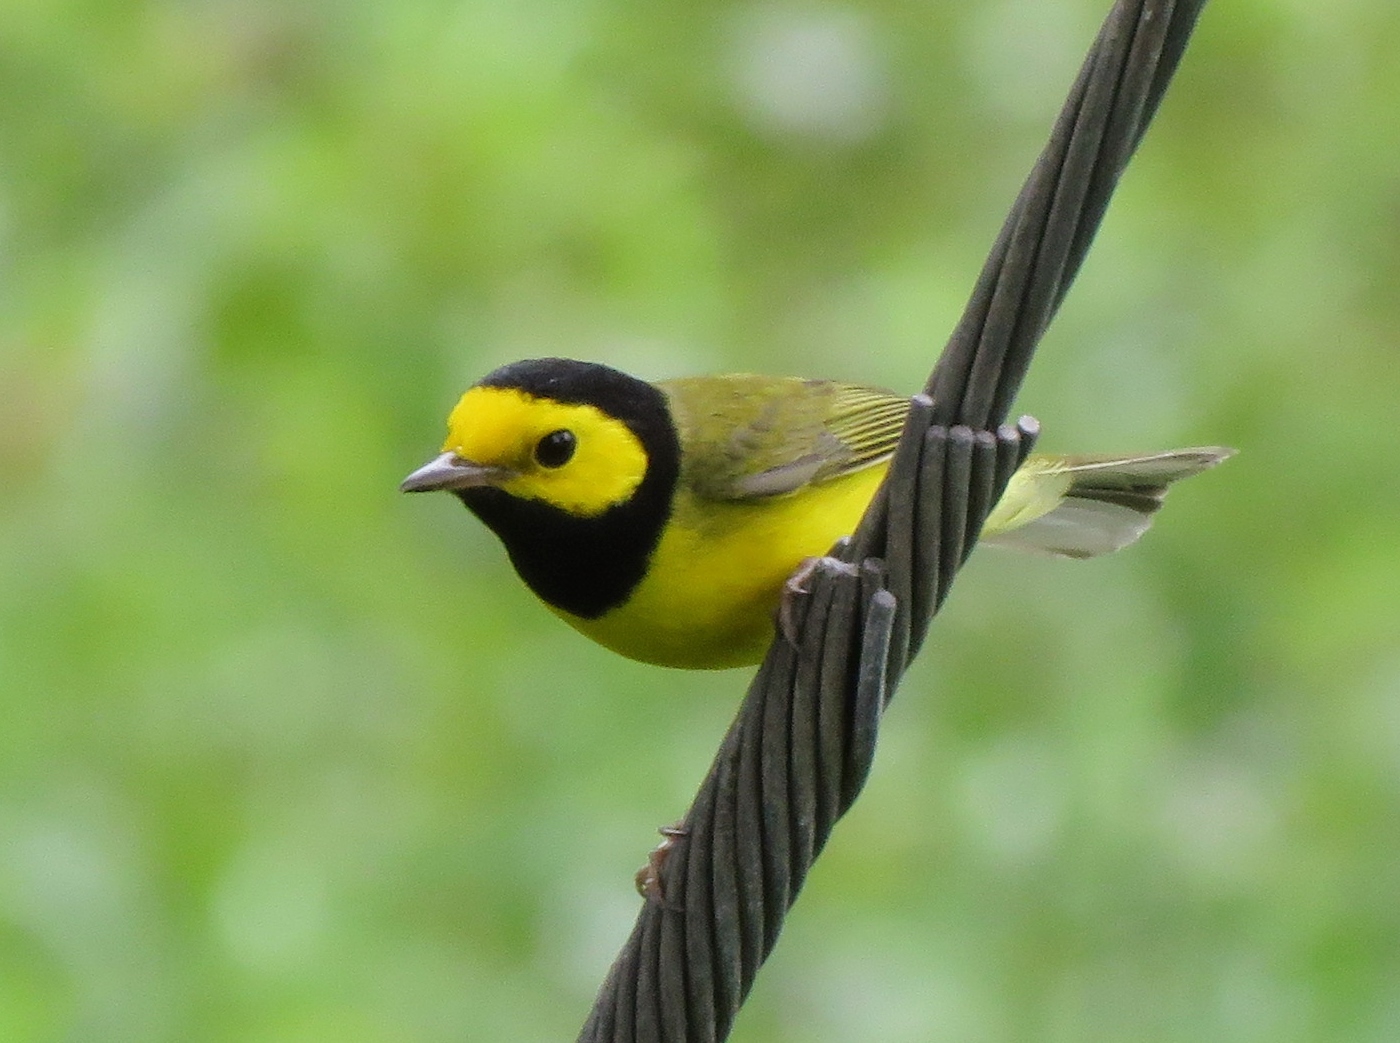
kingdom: Animalia
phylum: Chordata
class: Aves
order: Passeriformes
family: Parulidae
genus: Setophaga
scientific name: Setophaga citrina
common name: Hooded warbler
